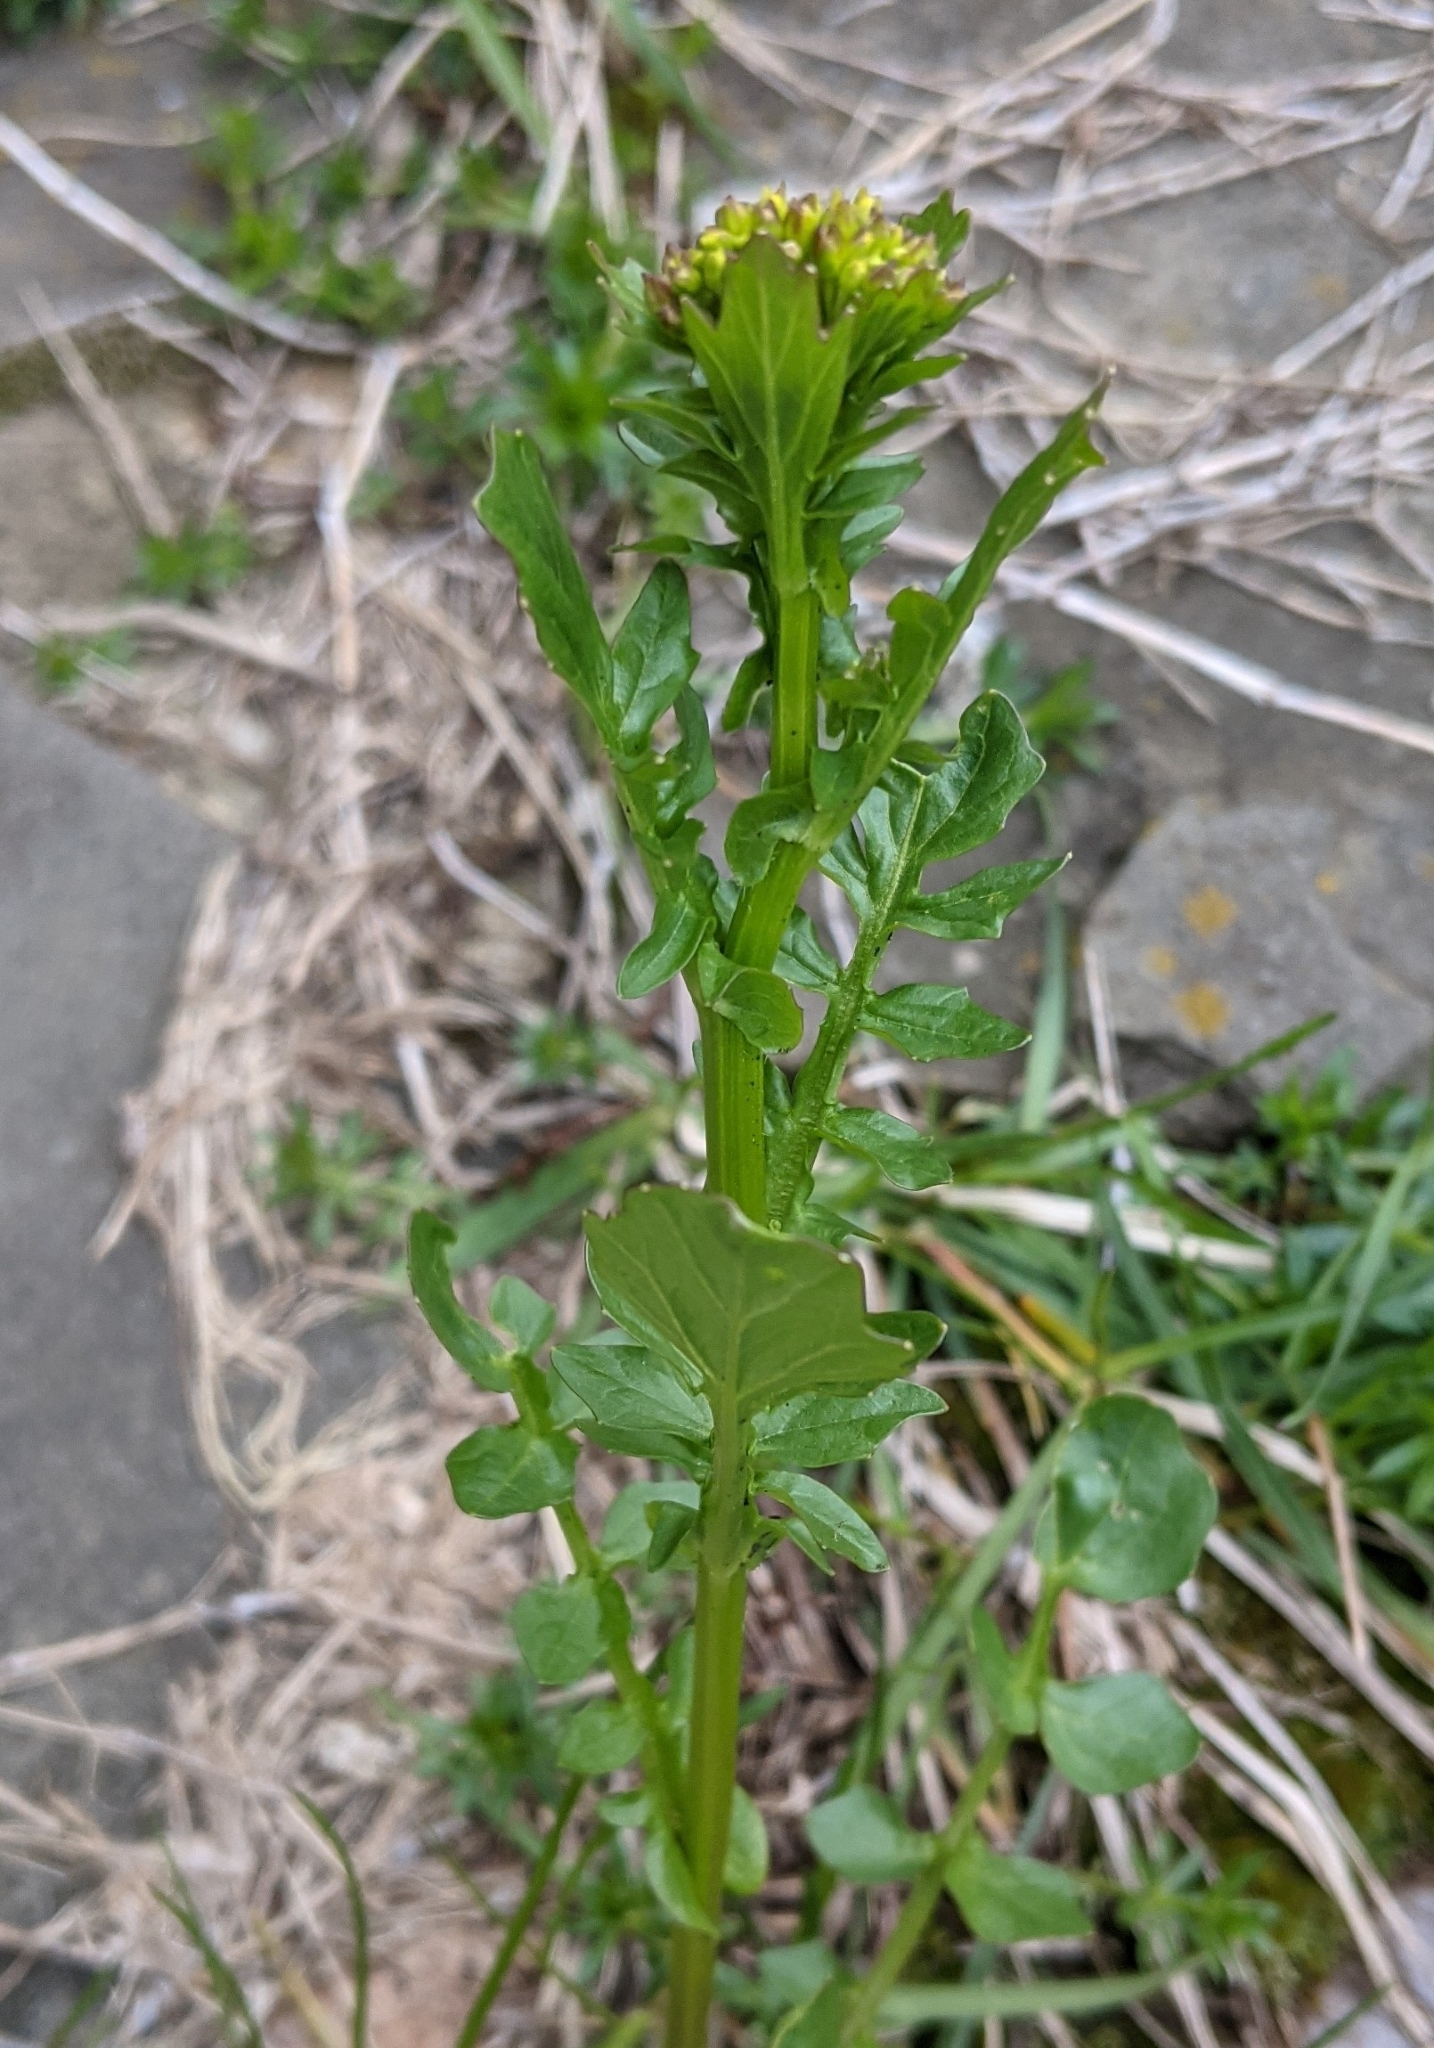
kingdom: Plantae
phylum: Tracheophyta
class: Magnoliopsida
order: Brassicales
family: Brassicaceae
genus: Barbarea
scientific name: Barbarea vulgaris
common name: Cressy-greens
